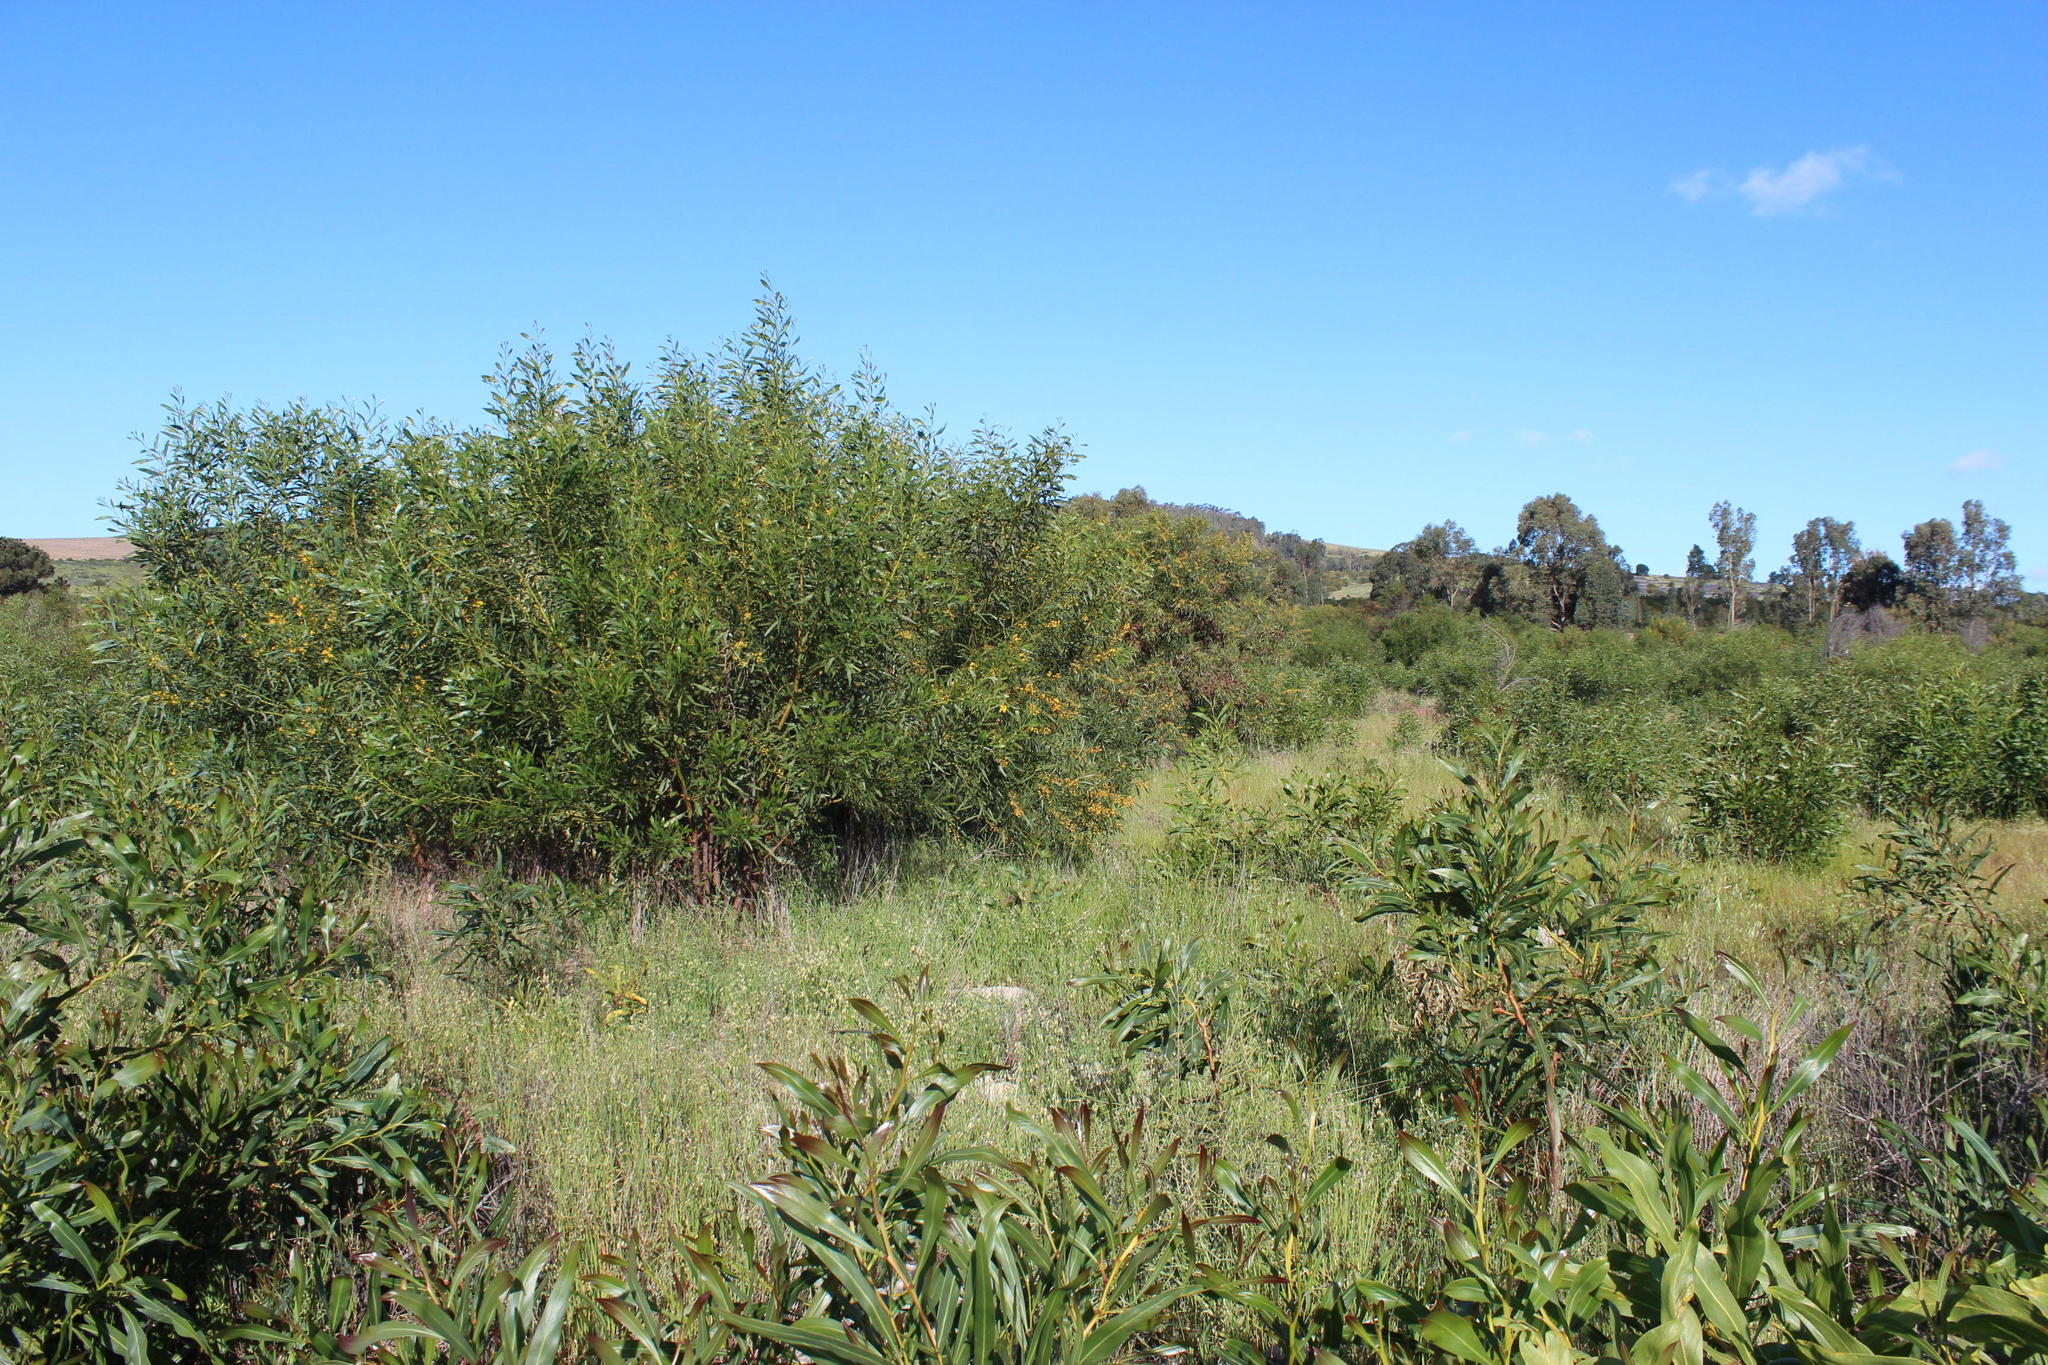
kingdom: Plantae
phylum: Tracheophyta
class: Magnoliopsida
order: Fabales
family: Fabaceae
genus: Acacia
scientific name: Acacia saligna
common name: Orange wattle
